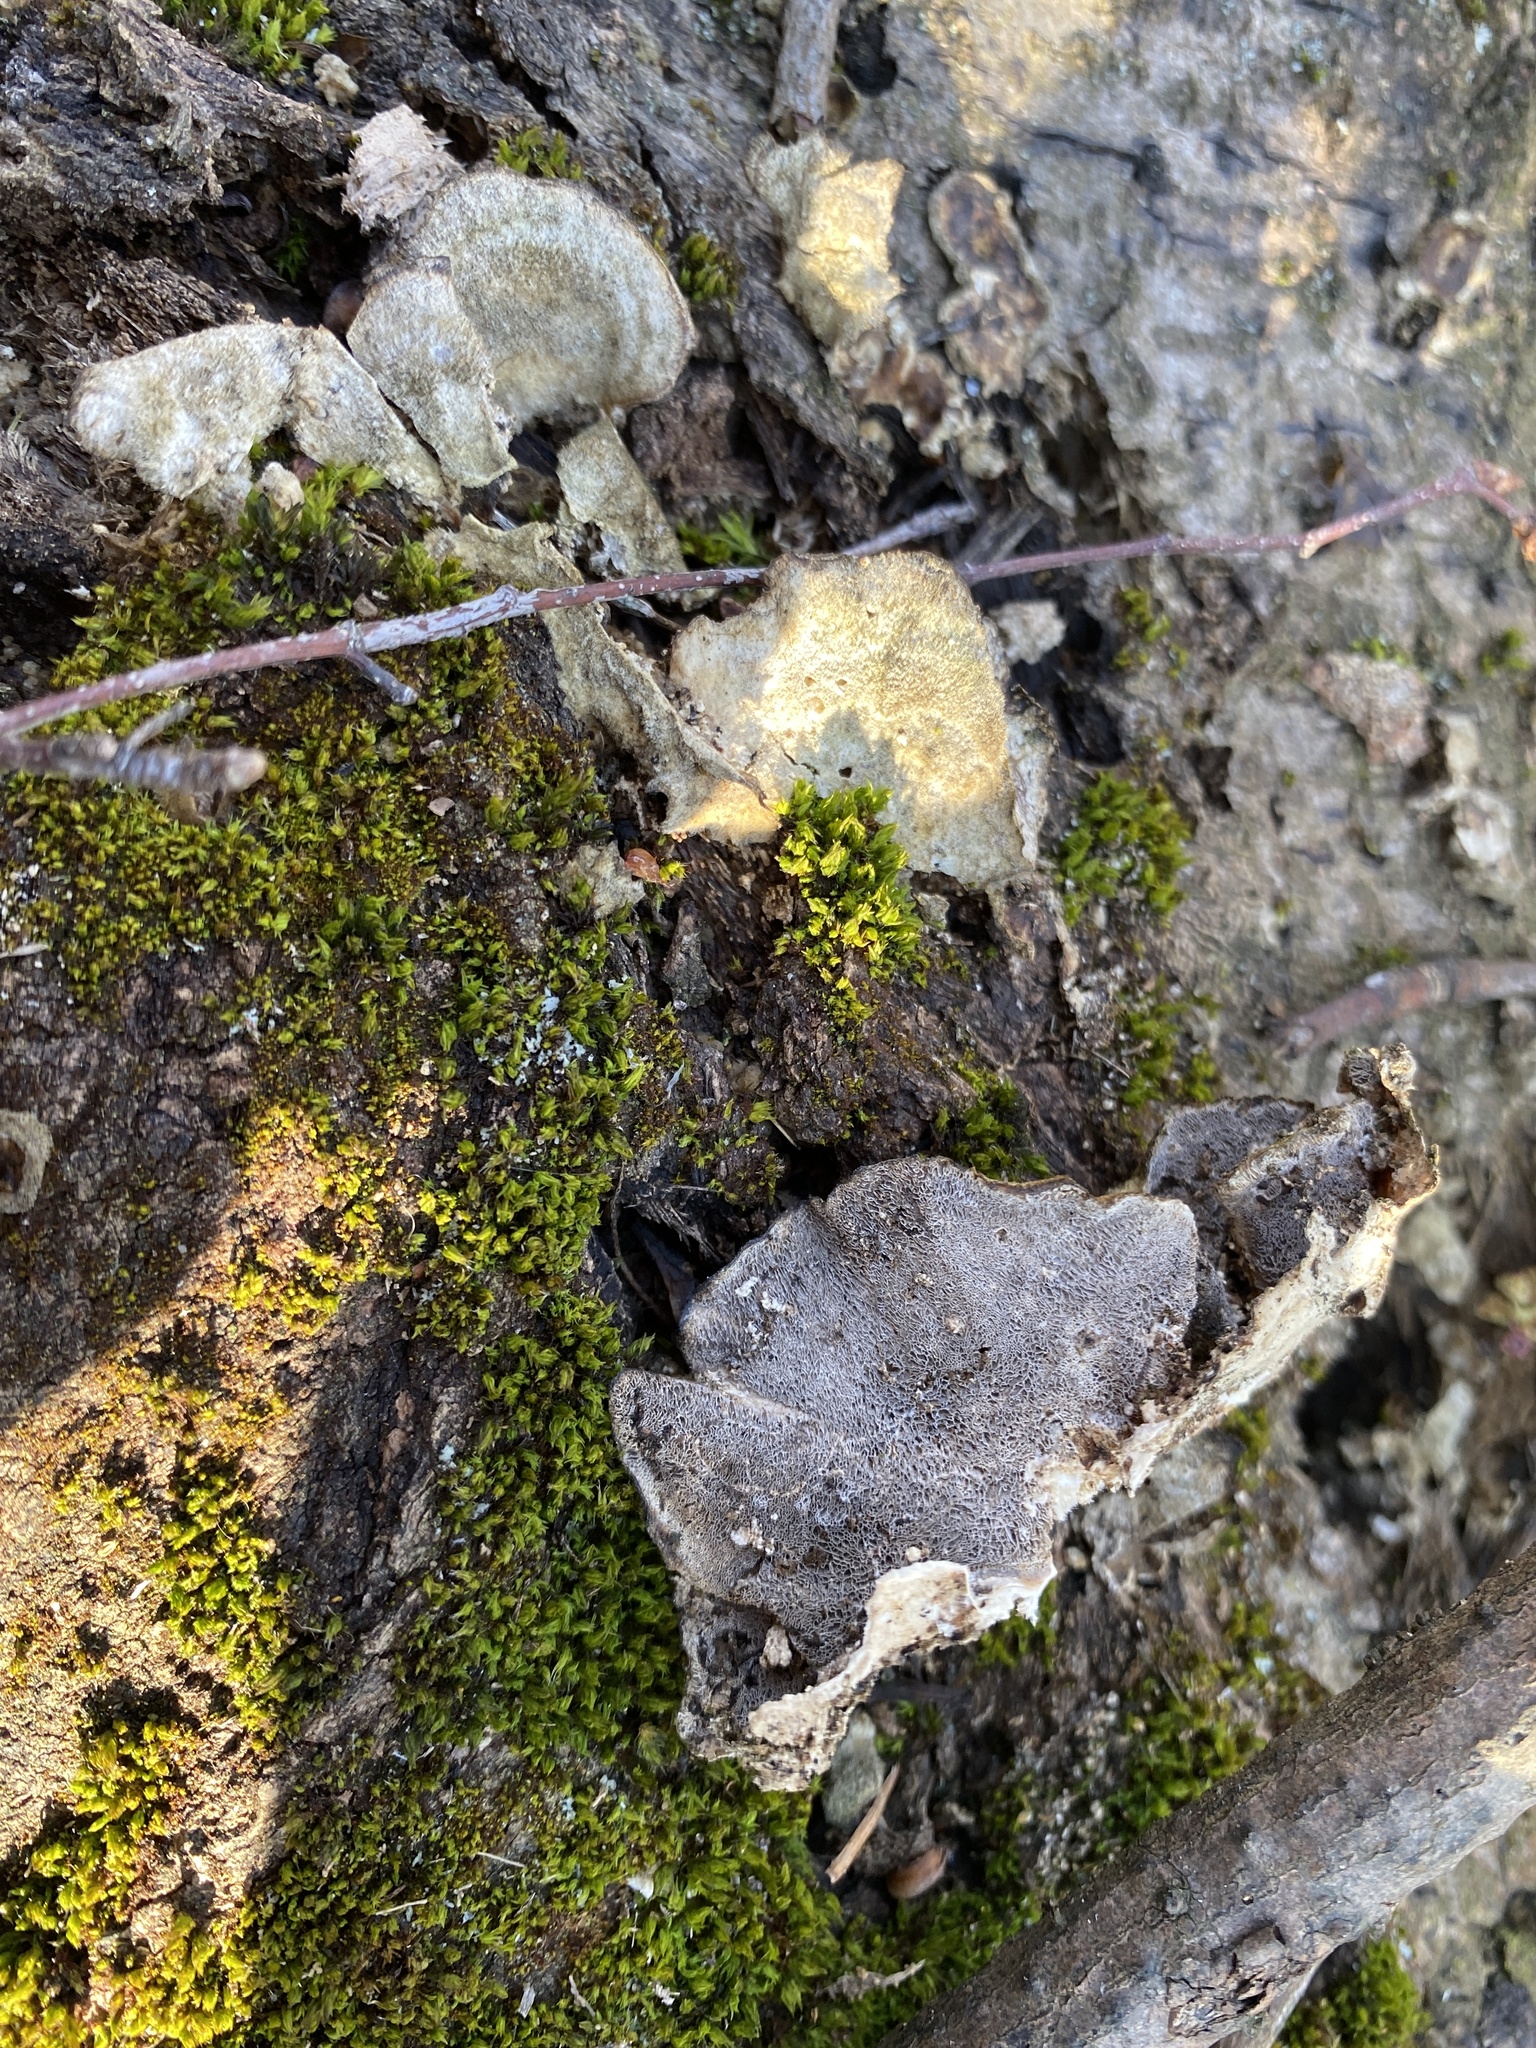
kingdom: Fungi
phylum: Basidiomycota
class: Agaricomycetes
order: Polyporales
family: Phanerochaetaceae
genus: Bjerkandera
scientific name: Bjerkandera adusta
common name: Smoky bracket
